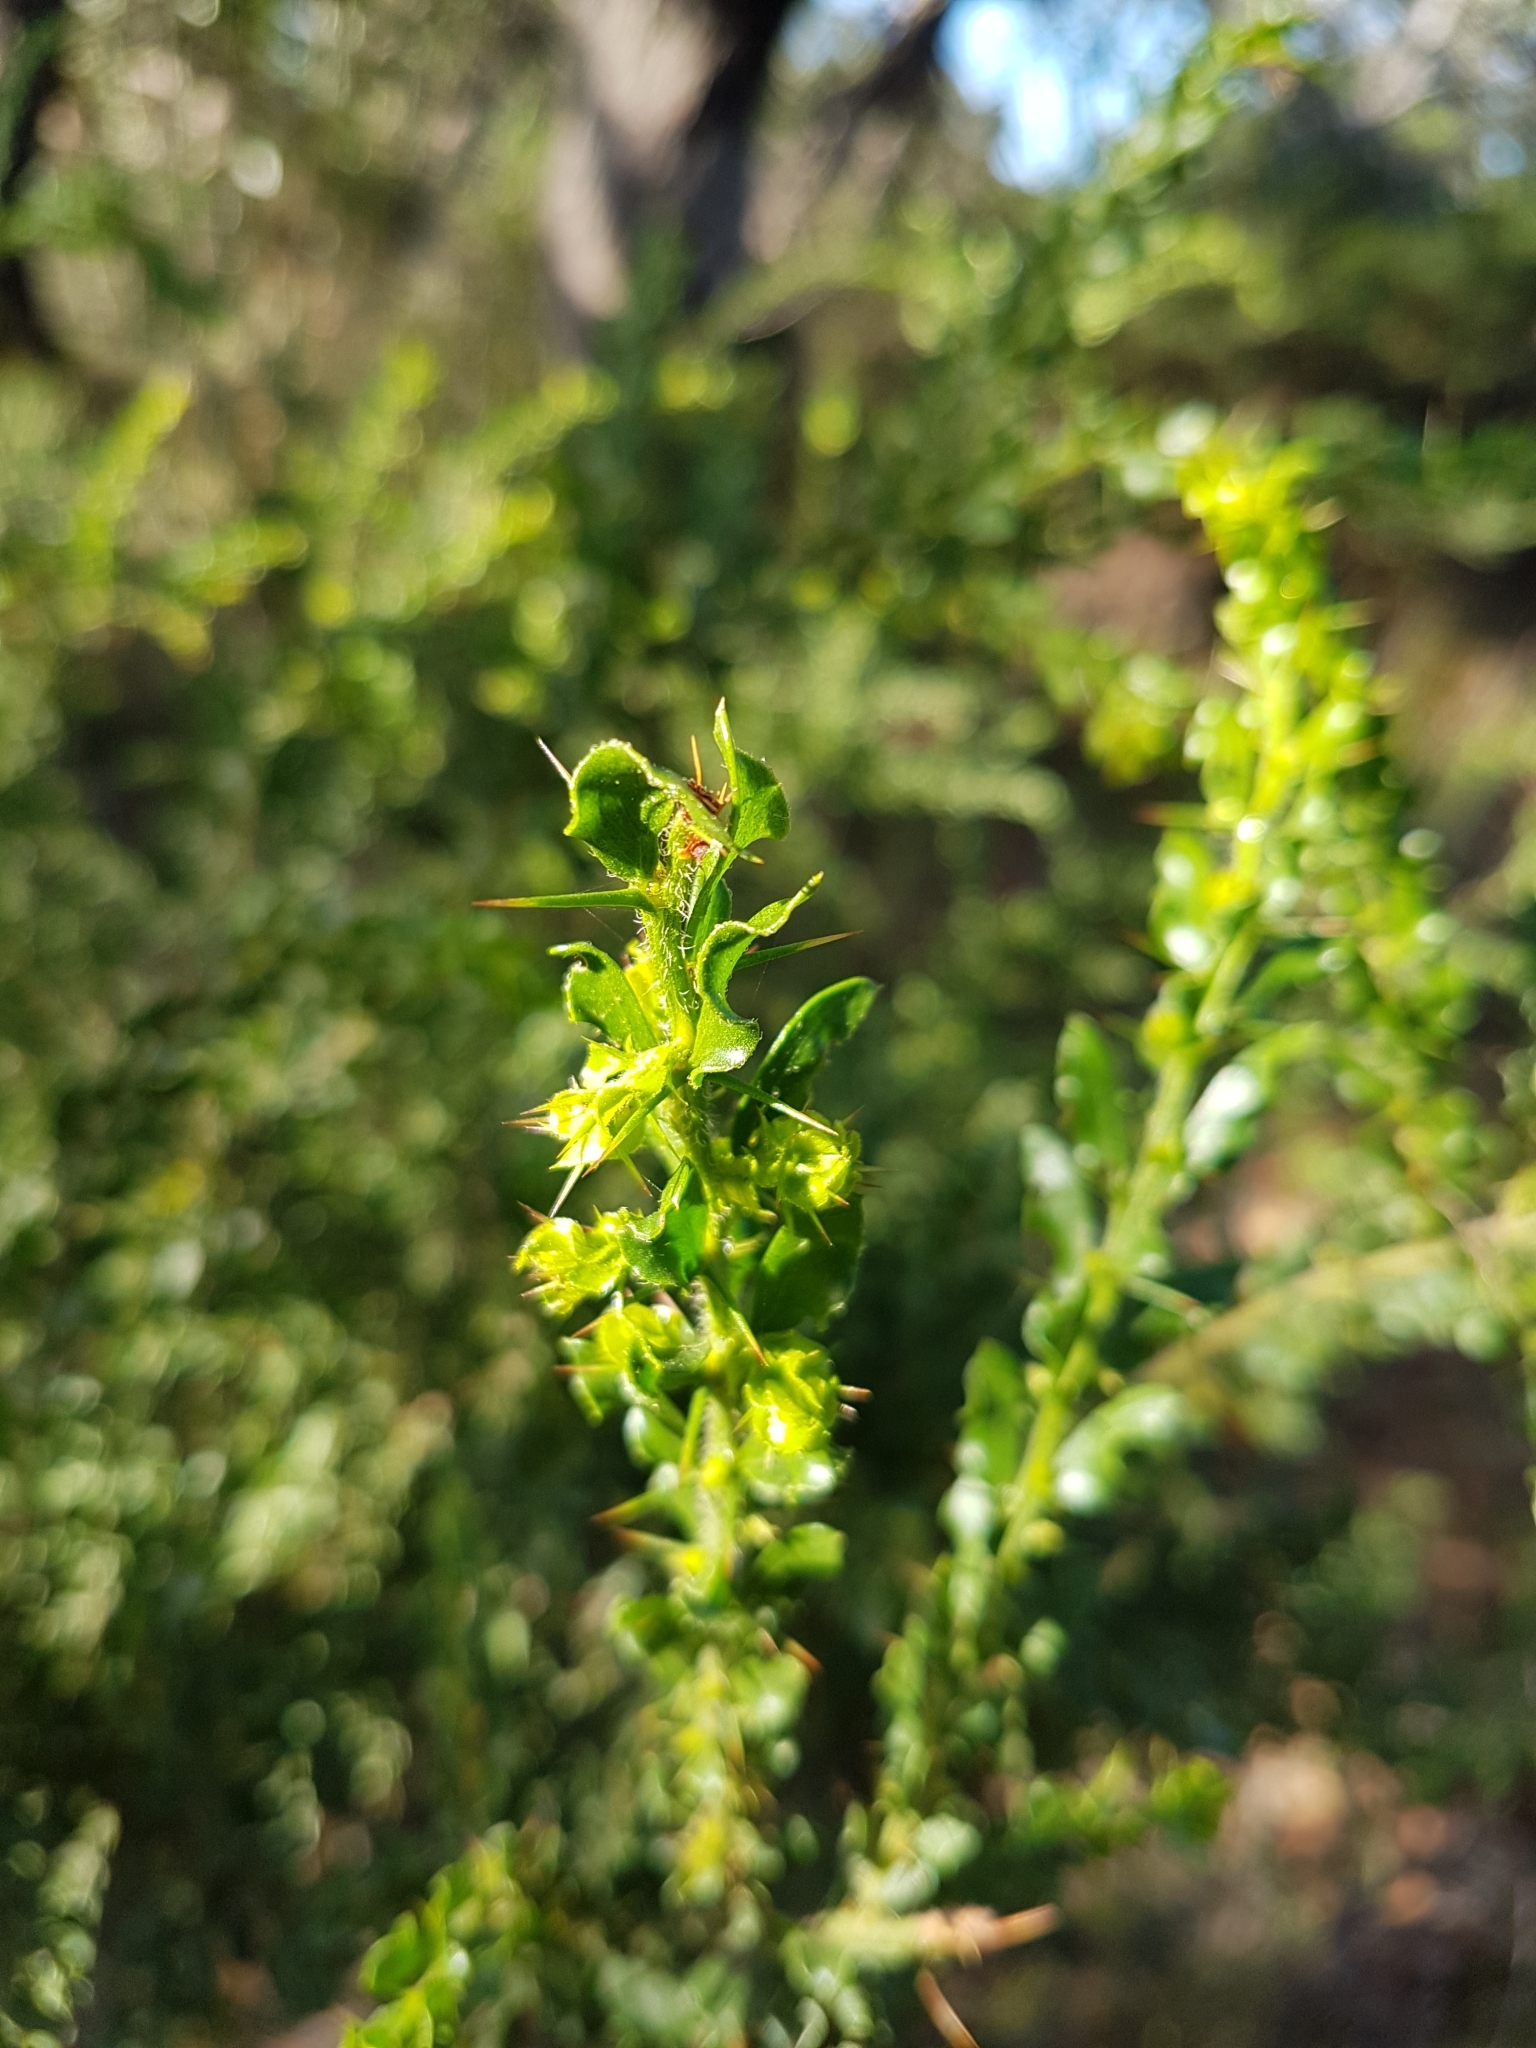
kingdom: Plantae
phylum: Tracheophyta
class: Magnoliopsida
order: Fabales
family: Fabaceae
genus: Acacia
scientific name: Acacia paradoxa
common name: Paradox acacia
